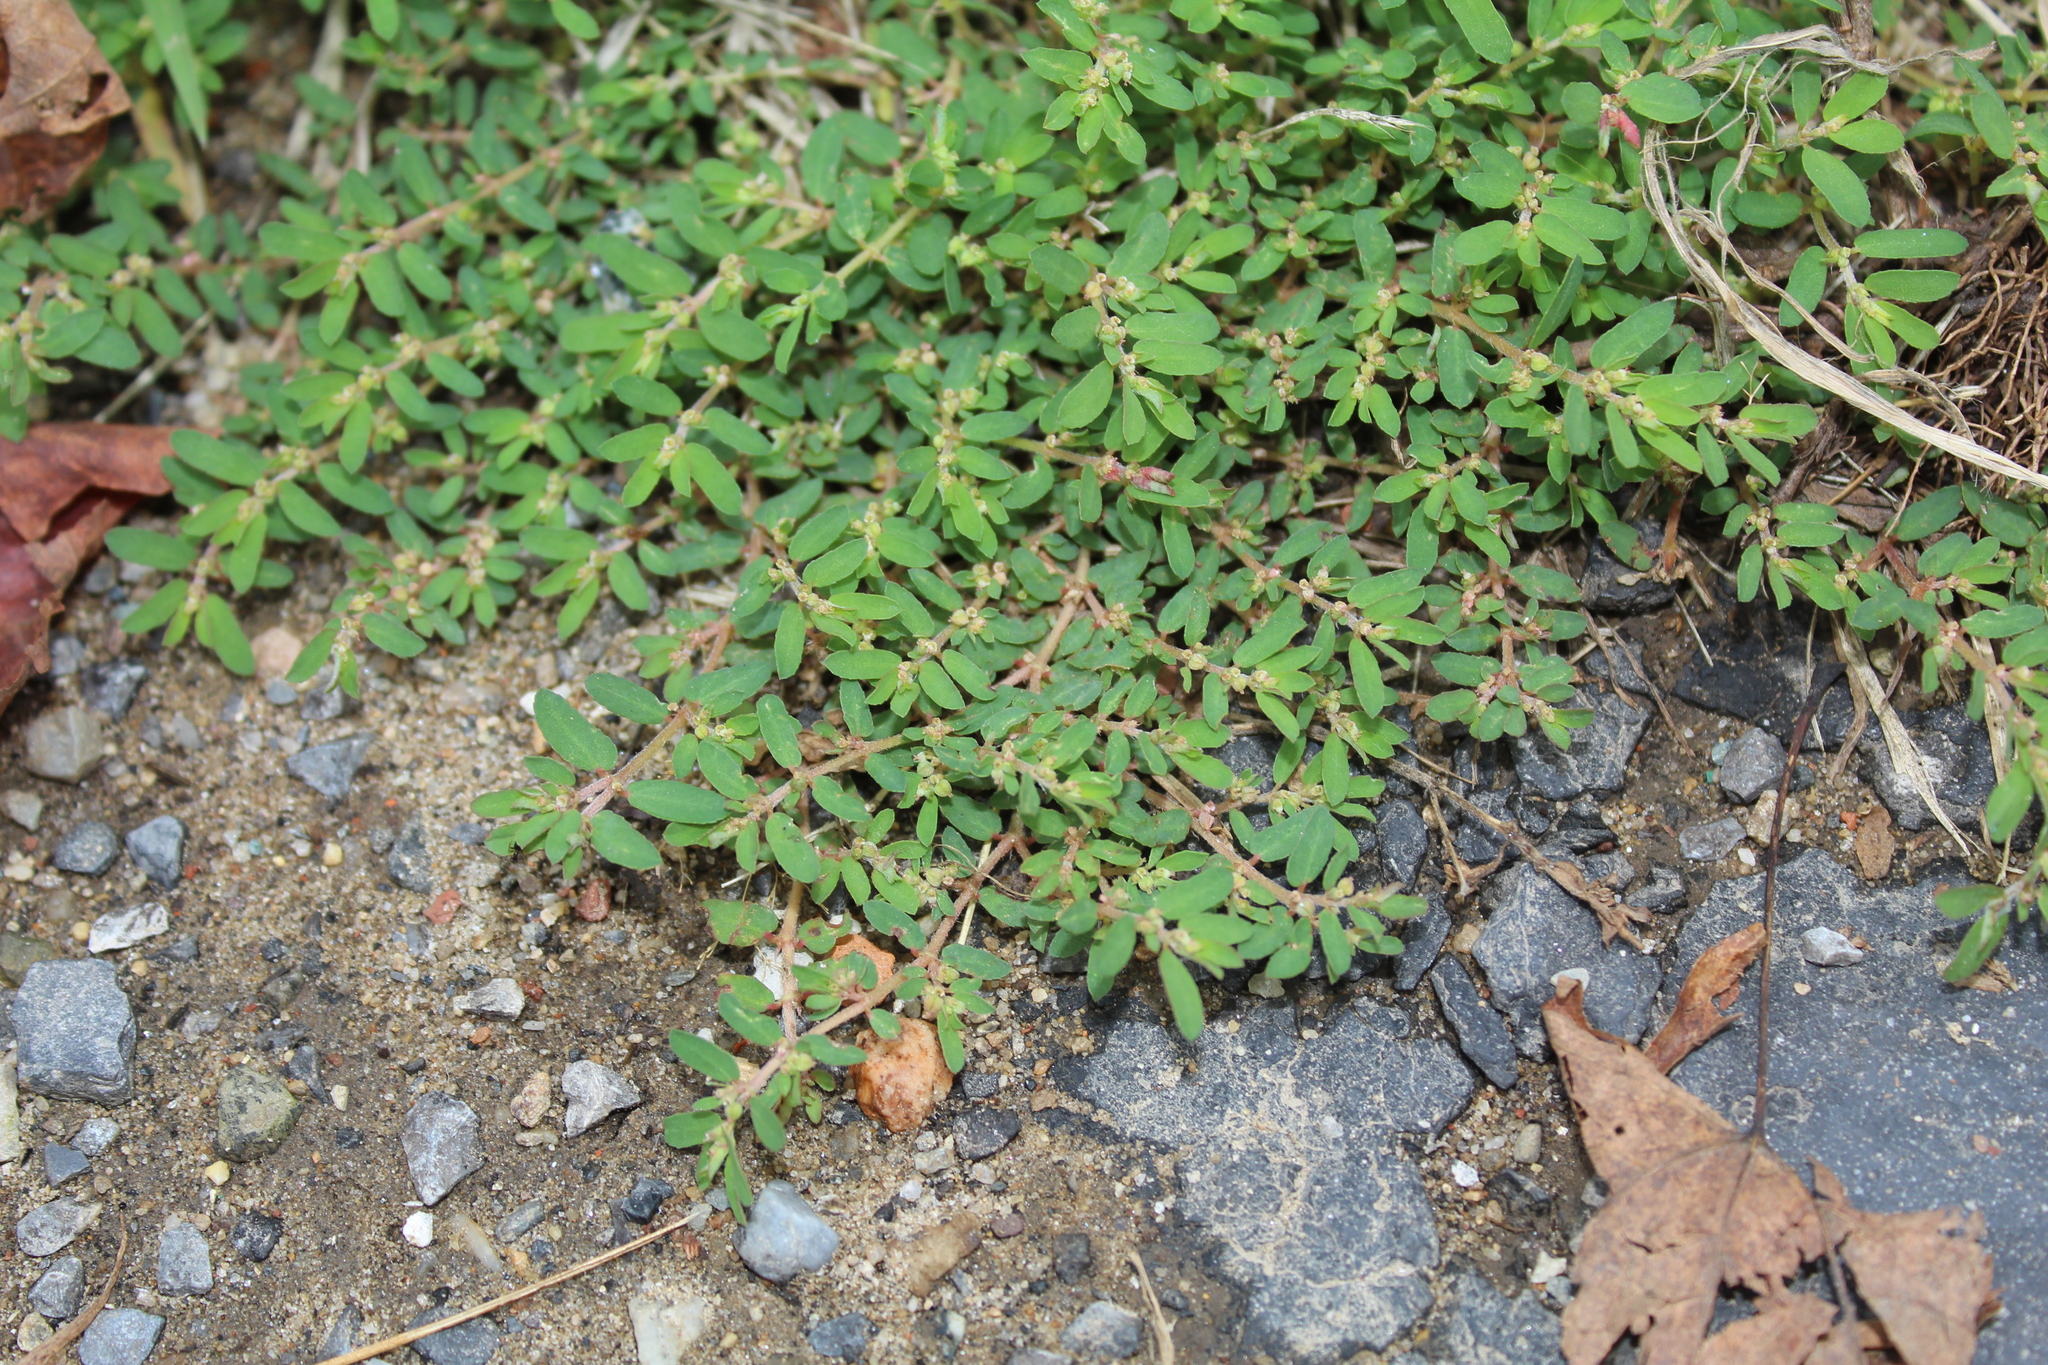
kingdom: Plantae
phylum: Tracheophyta
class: Magnoliopsida
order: Malpighiales
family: Euphorbiaceae
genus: Euphorbia
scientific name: Euphorbia maculata
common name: Spotted spurge
